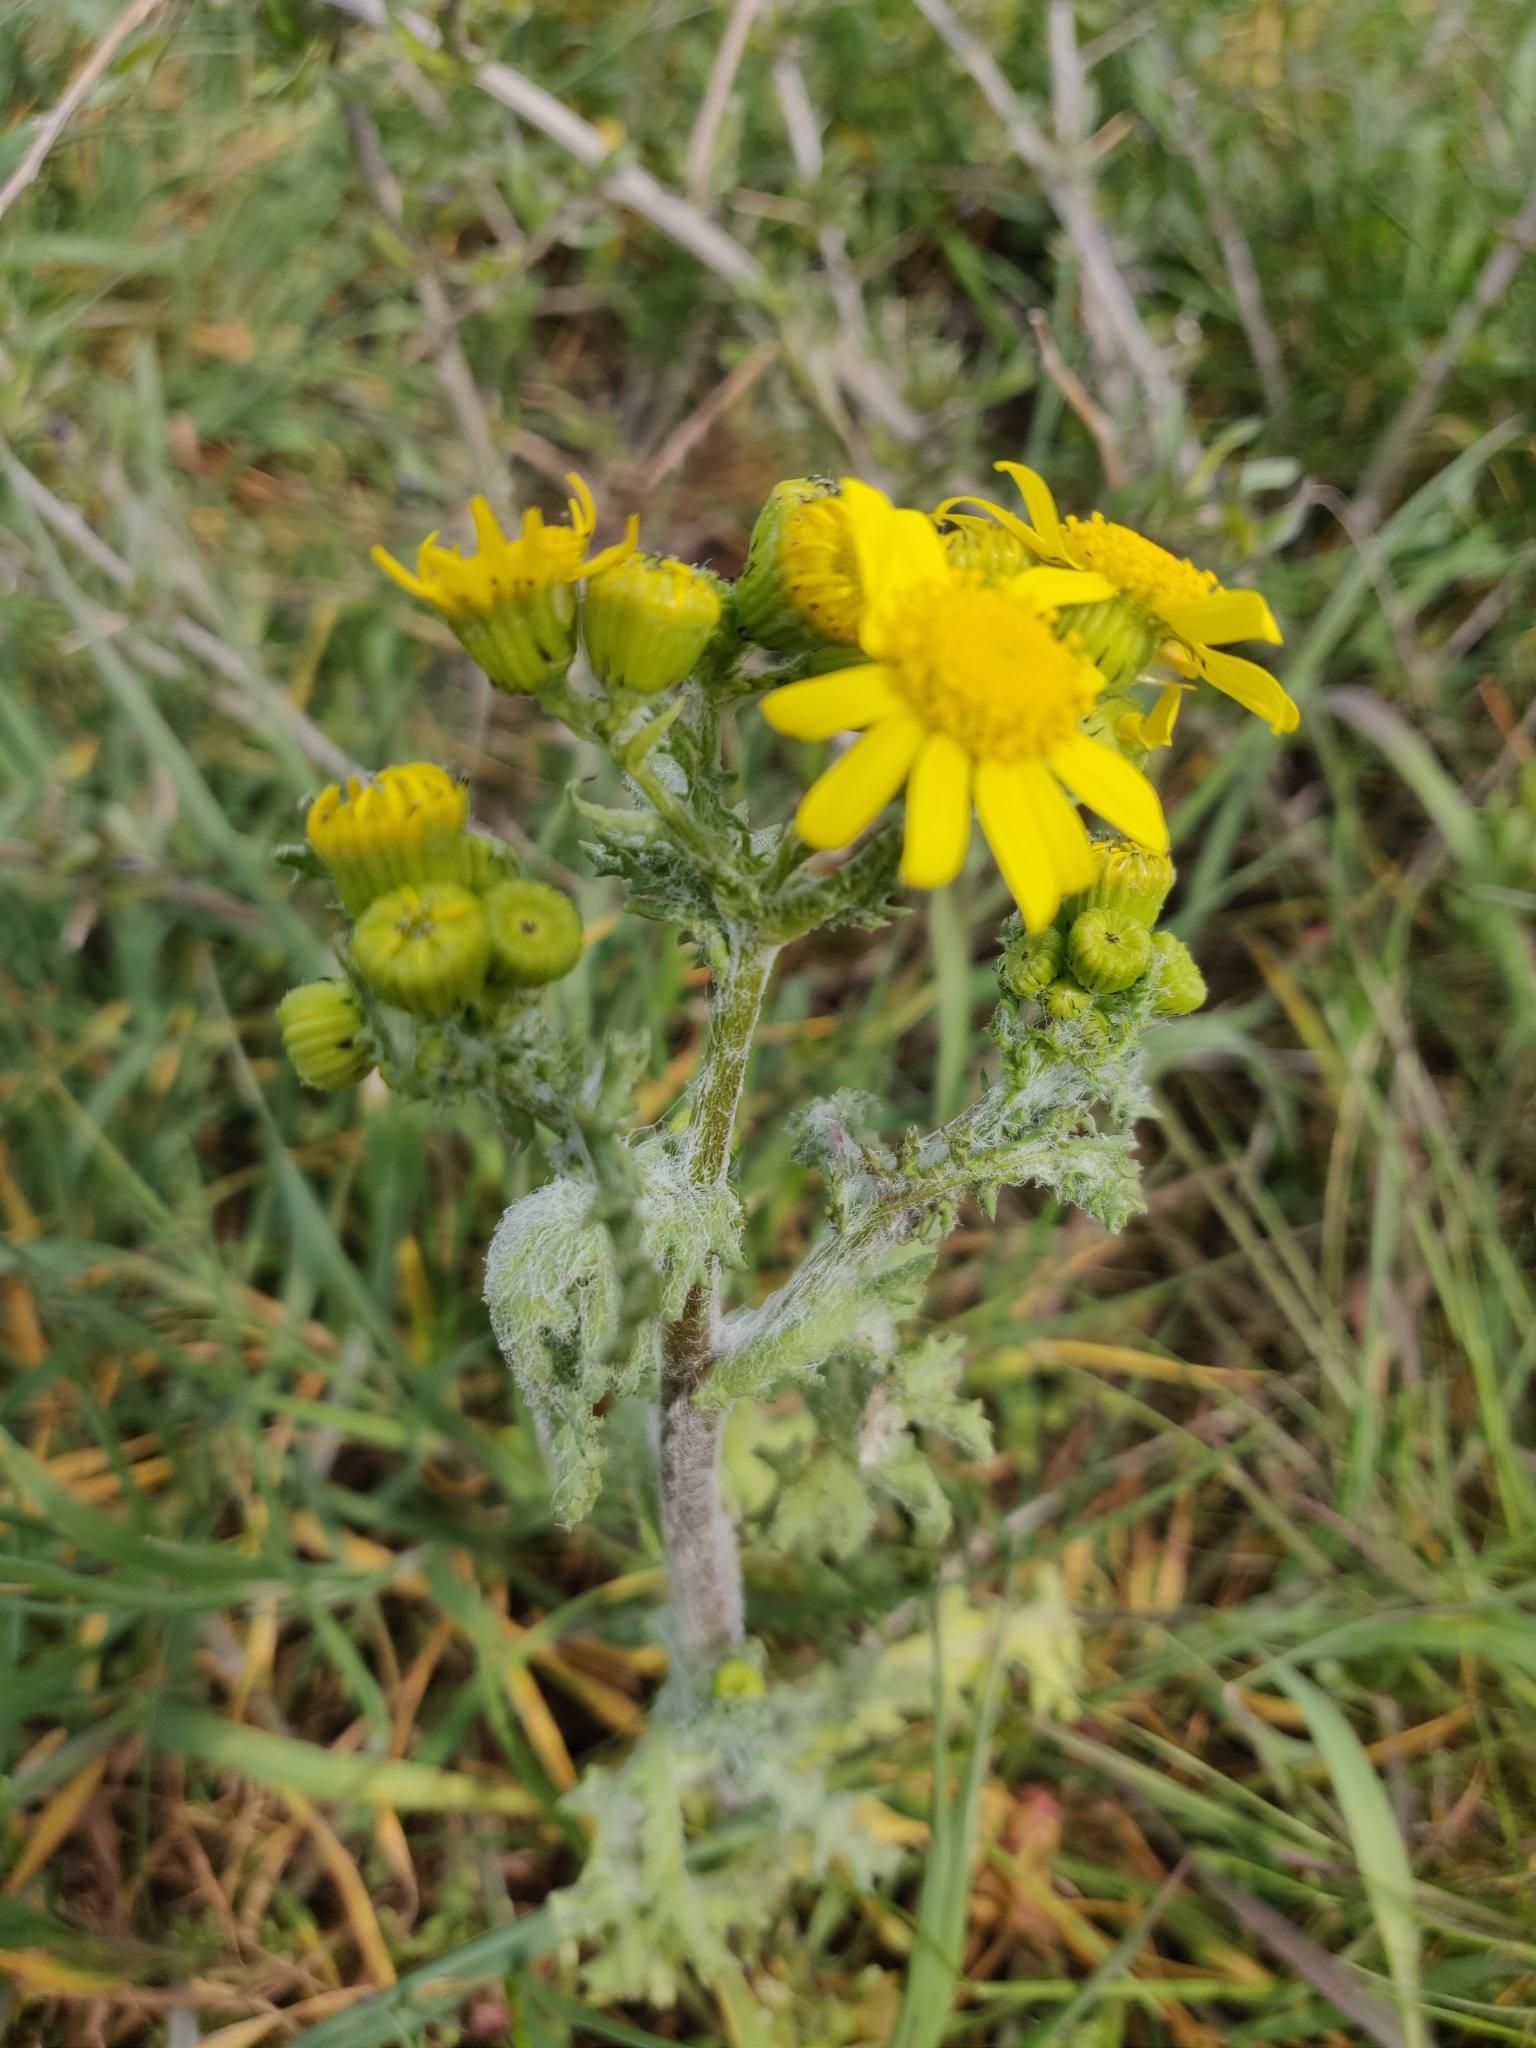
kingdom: Plantae
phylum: Tracheophyta
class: Magnoliopsida
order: Asterales
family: Asteraceae
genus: Senecio
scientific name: Senecio vernalis
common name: Eastern groundsel
